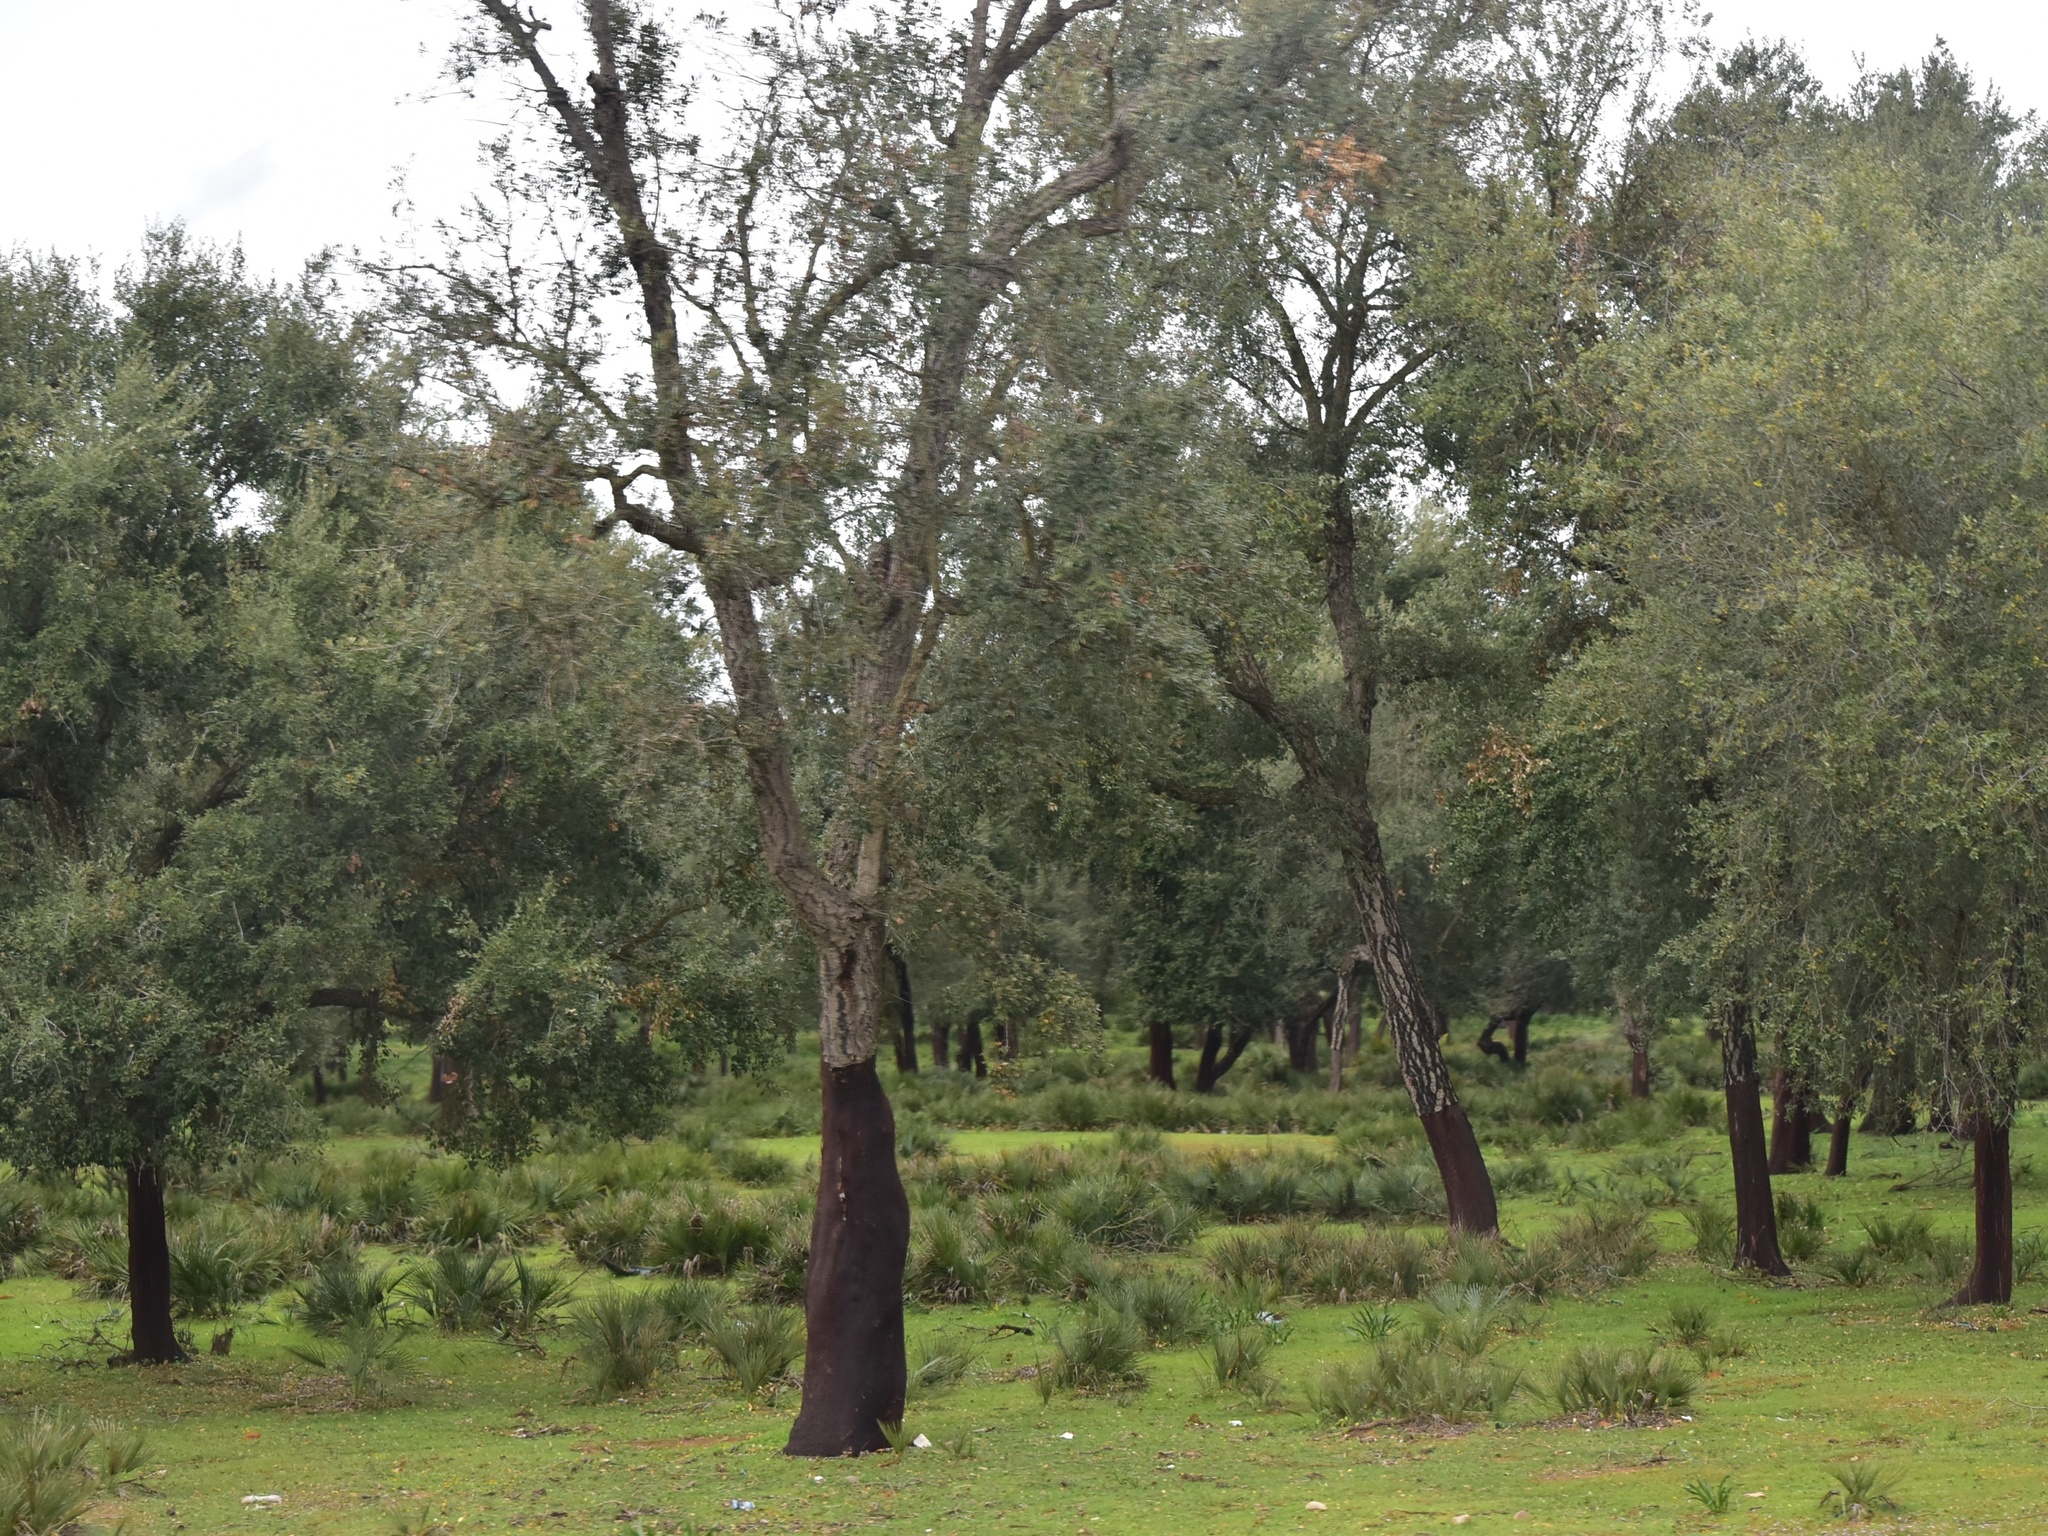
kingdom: Plantae
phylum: Tracheophyta
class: Magnoliopsida
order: Fagales
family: Fagaceae
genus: Quercus
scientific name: Quercus suber
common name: Cork oak
